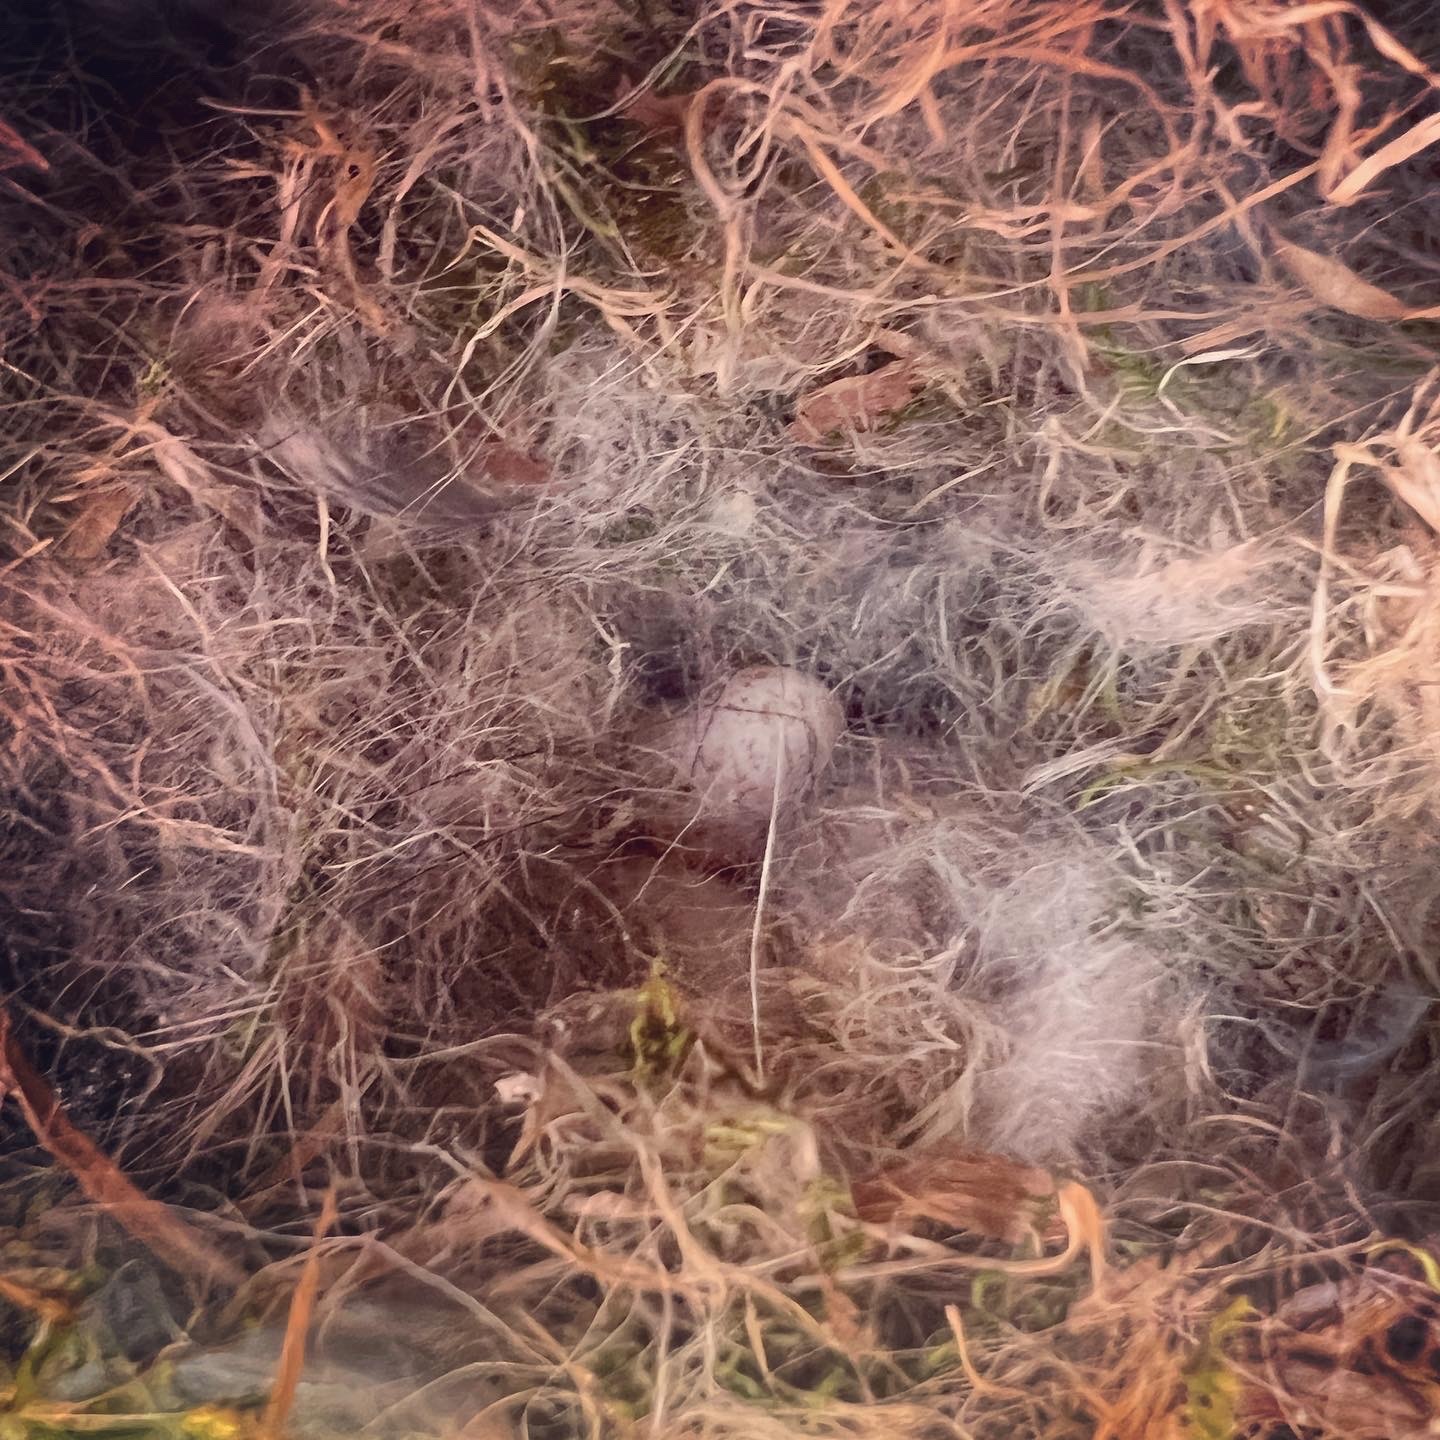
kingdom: Animalia
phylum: Chordata
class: Aves
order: Passeriformes
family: Paridae
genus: Poecile
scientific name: Poecile carolinensis
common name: Carolina chickadee
